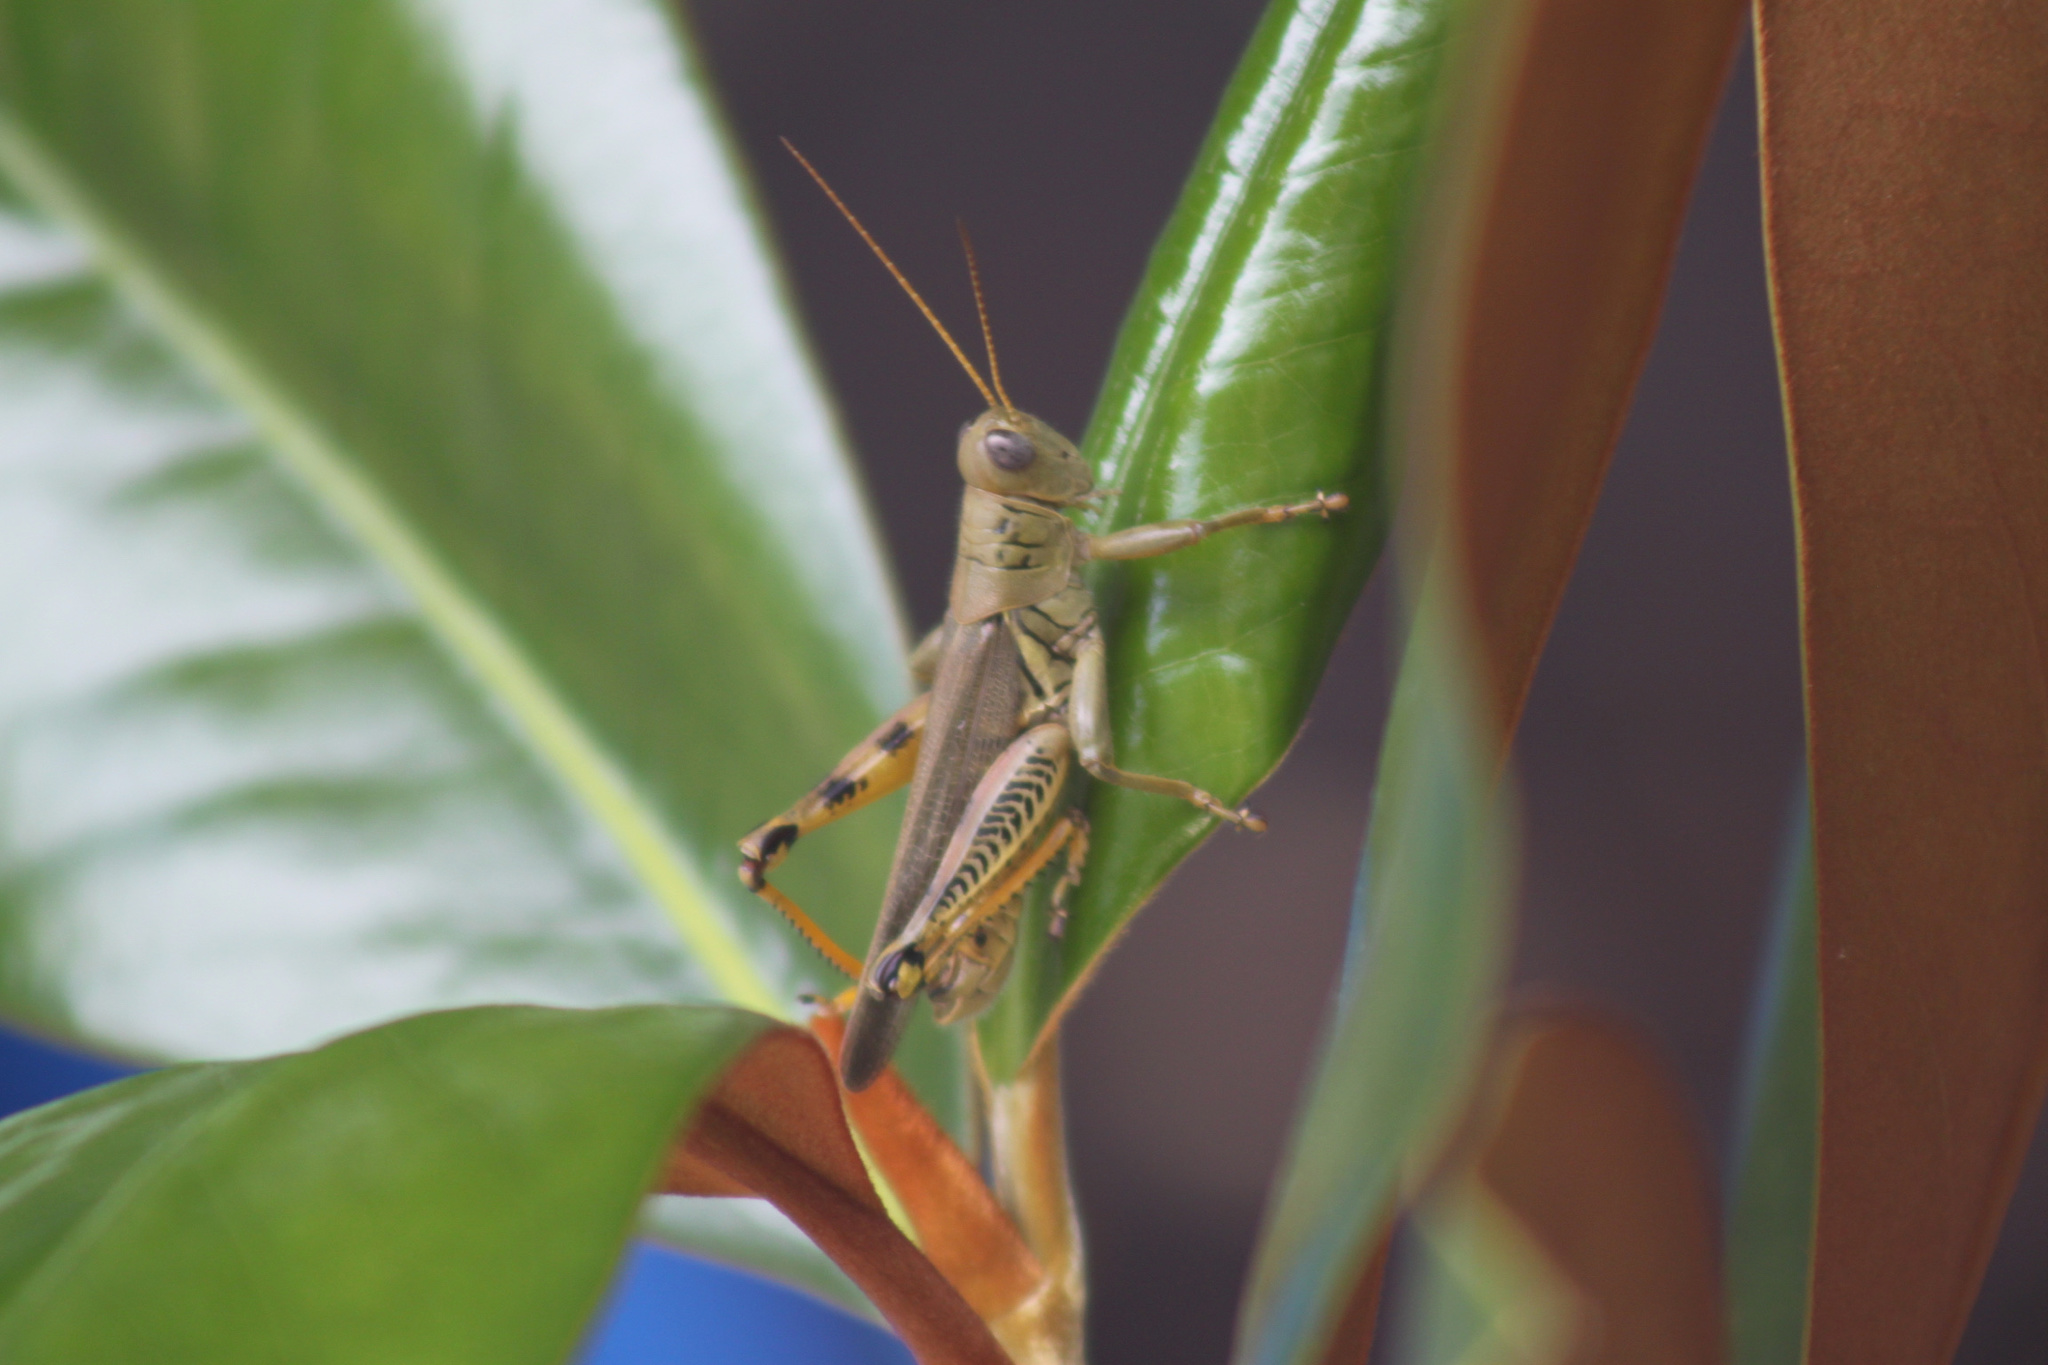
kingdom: Animalia
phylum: Arthropoda
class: Insecta
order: Orthoptera
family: Acrididae
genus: Melanoplus
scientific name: Melanoplus differentialis
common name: Differential grasshopper
